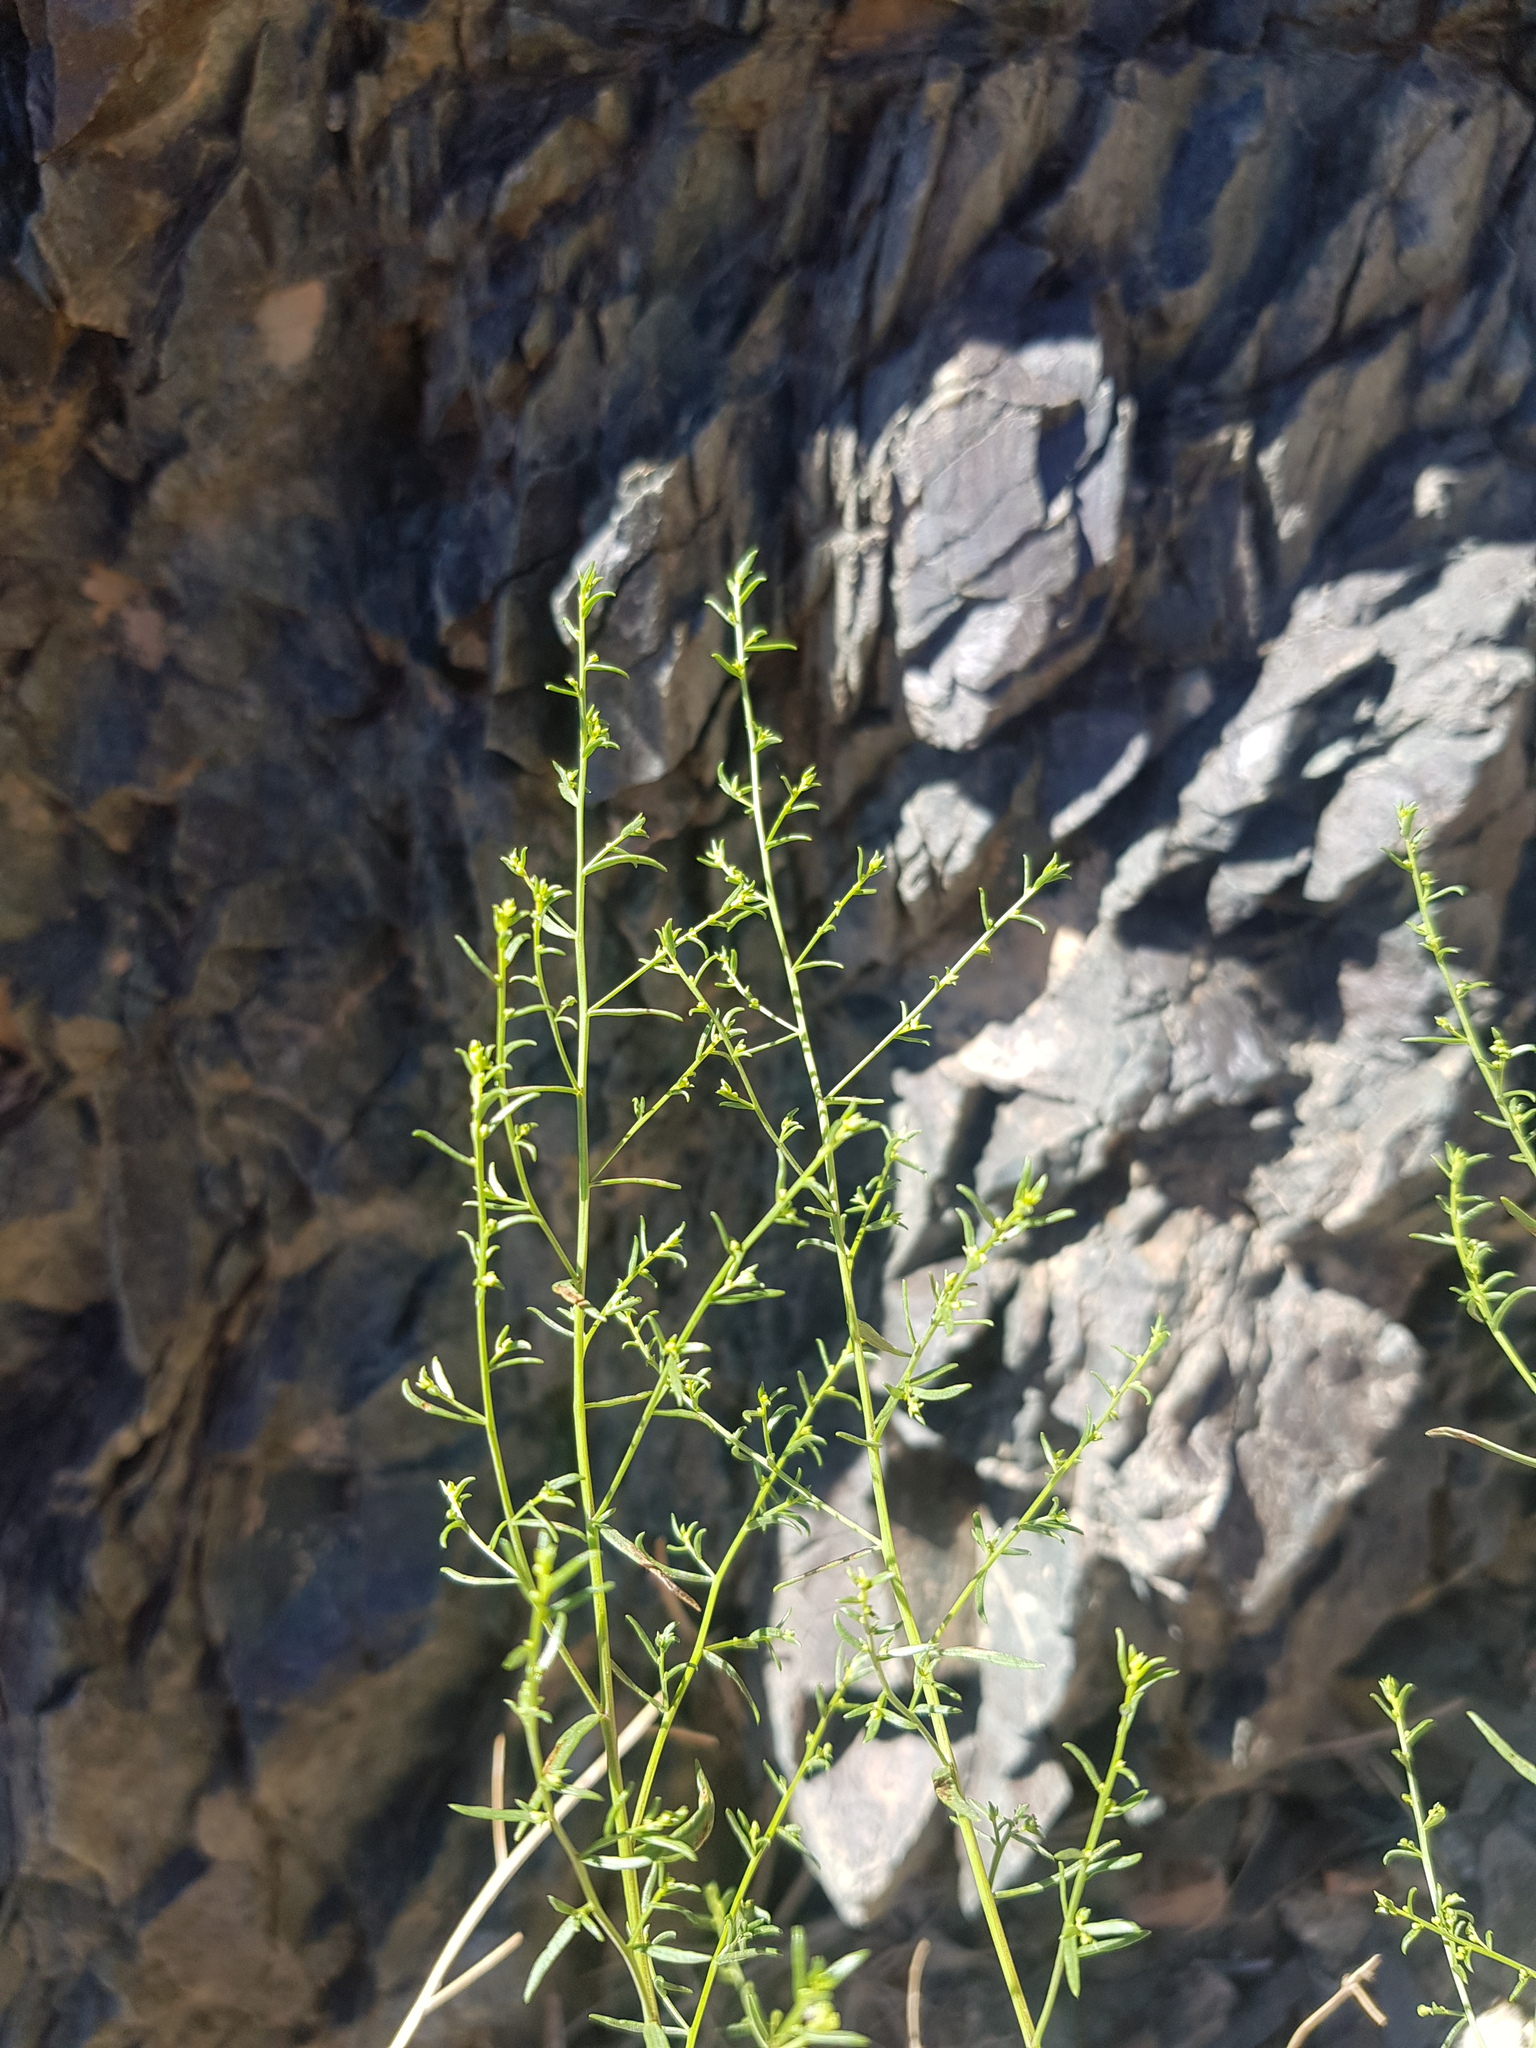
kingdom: Plantae
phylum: Tracheophyta
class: Magnoliopsida
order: Asterales
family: Asteraceae
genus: Artemisia
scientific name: Artemisia xanthochloa
